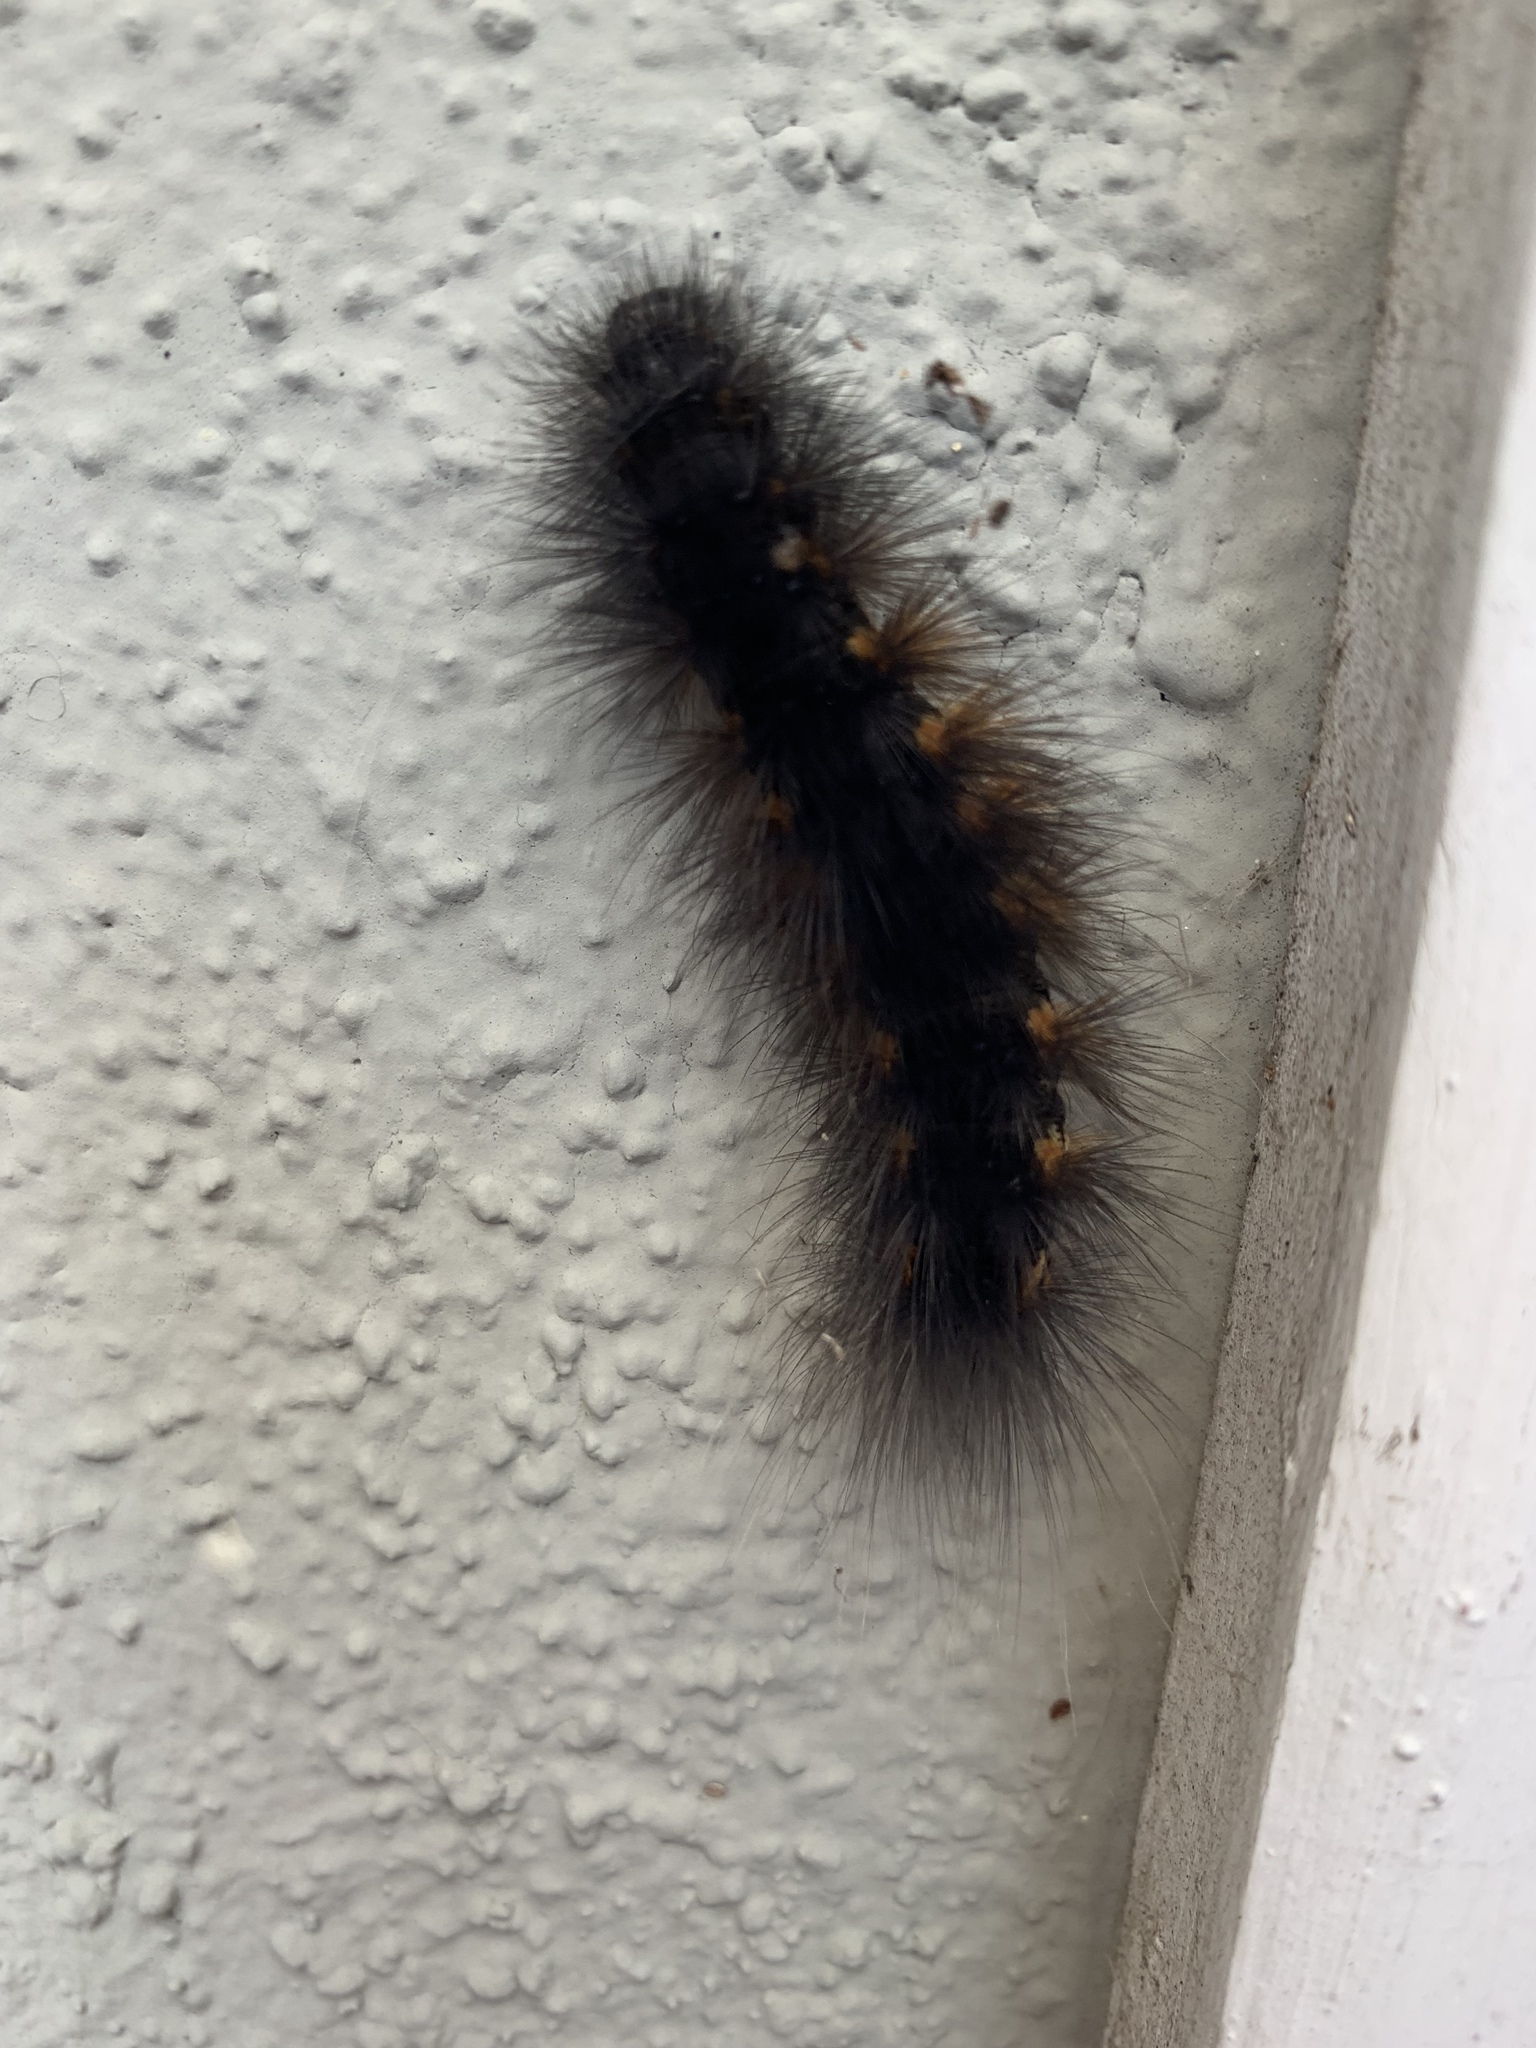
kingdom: Animalia
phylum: Arthropoda
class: Insecta
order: Lepidoptera
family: Erebidae
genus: Estigmene
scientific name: Estigmene acrea
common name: Salt marsh moth
